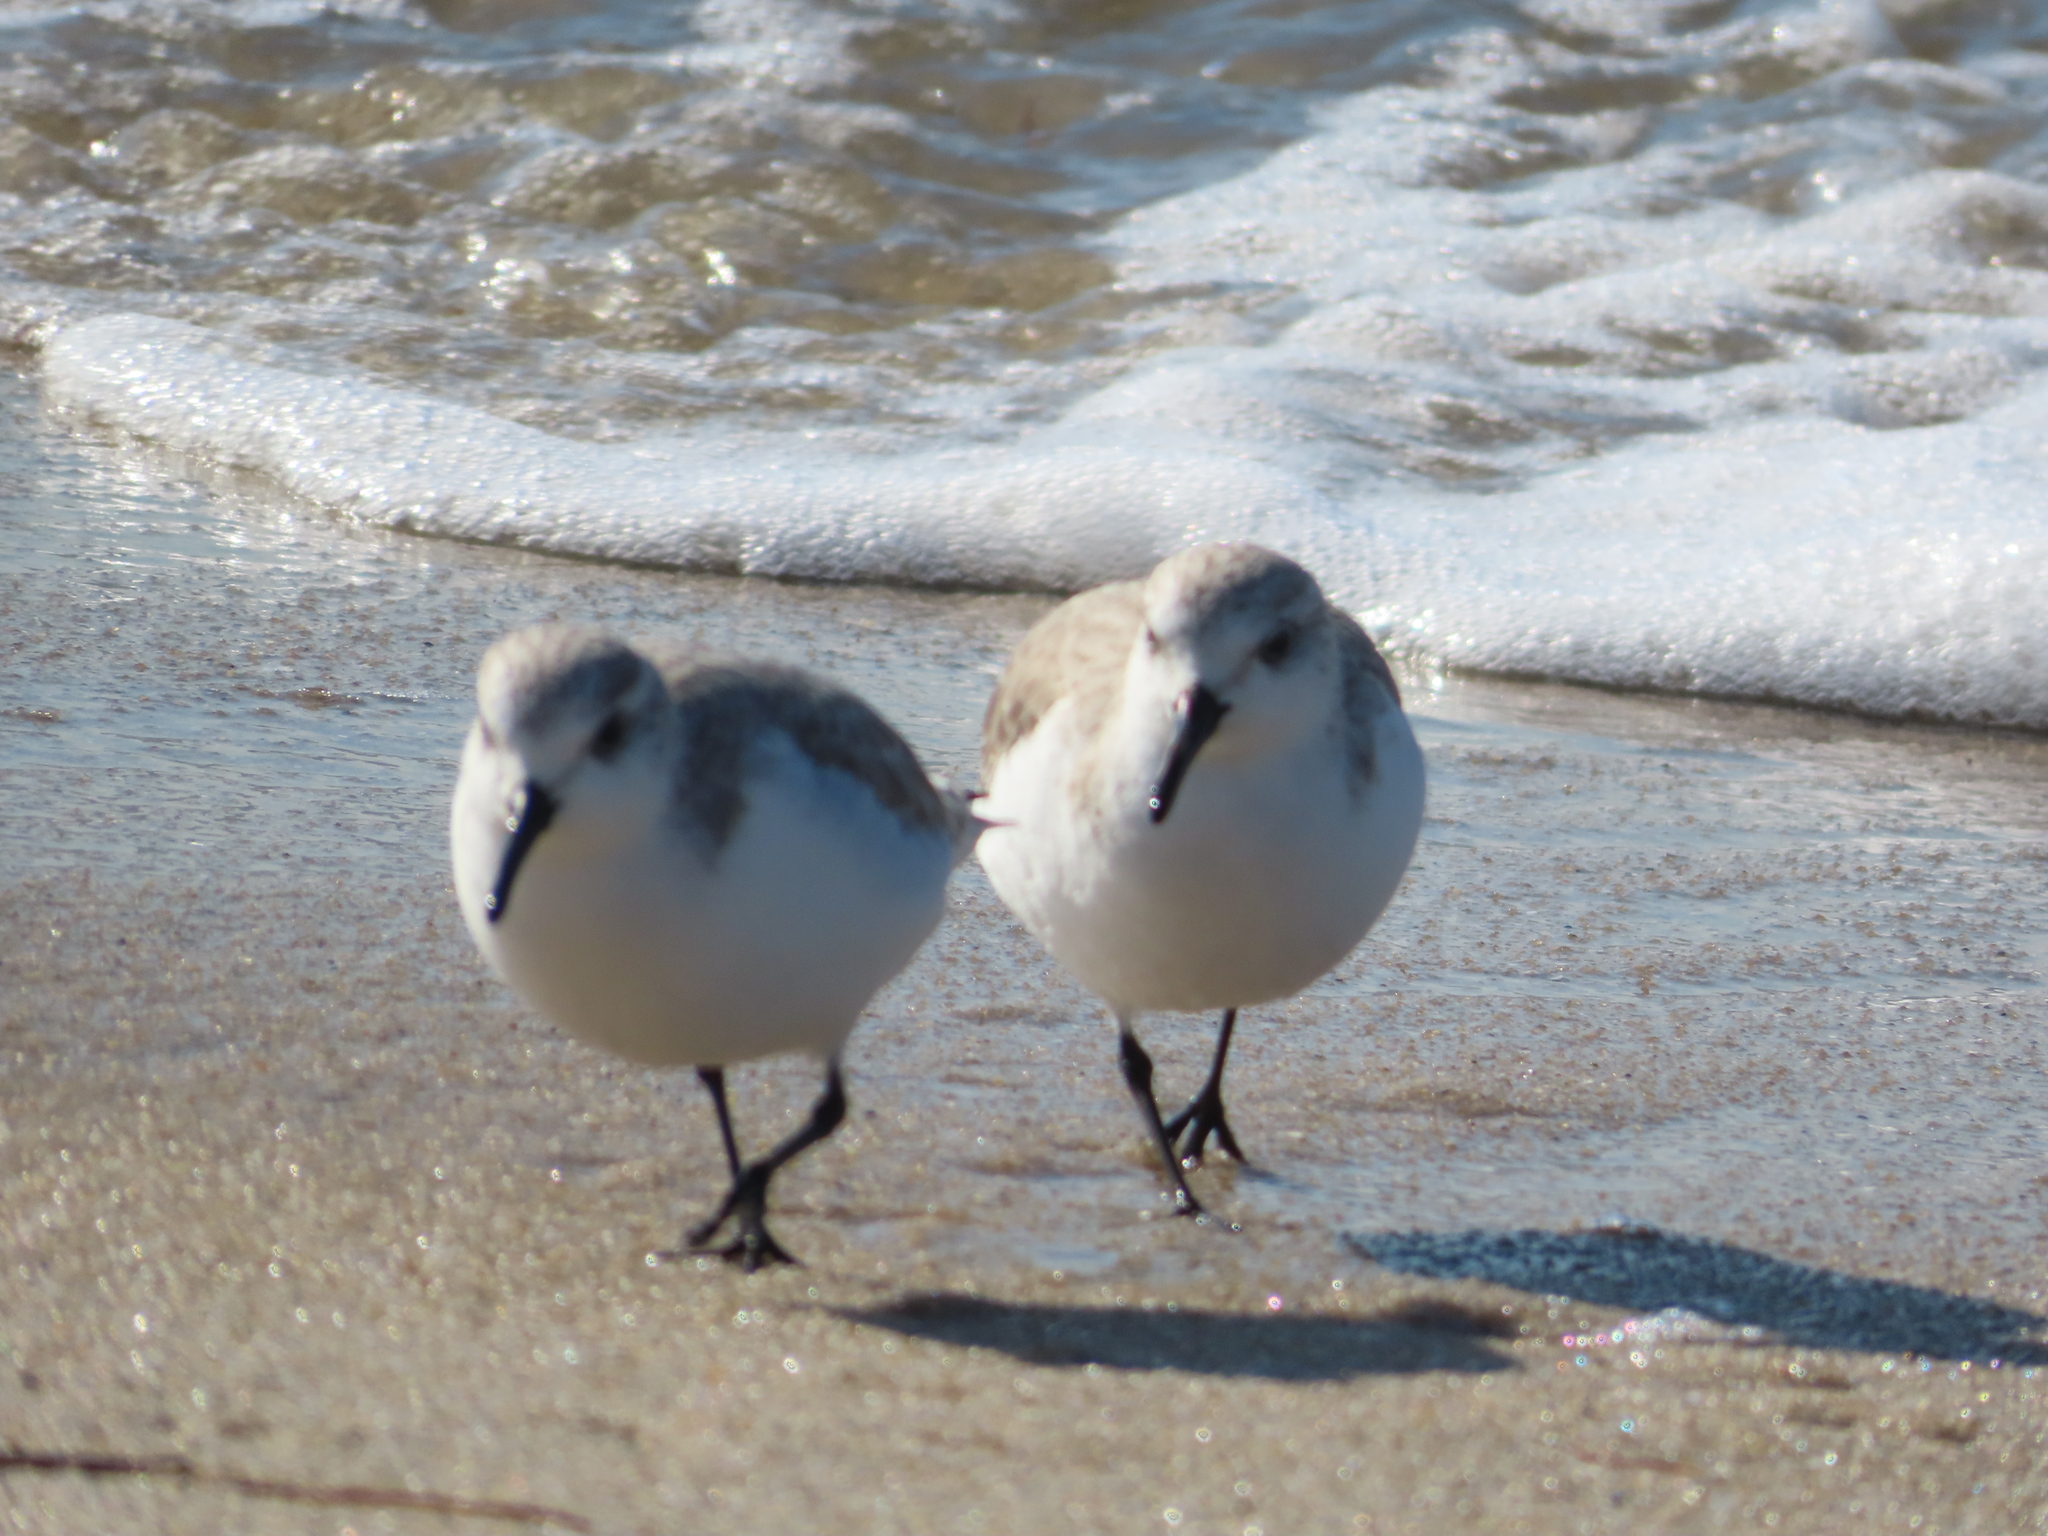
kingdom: Animalia
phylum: Chordata
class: Aves
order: Charadriiformes
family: Scolopacidae
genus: Calidris
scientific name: Calidris alba
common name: Sanderling
